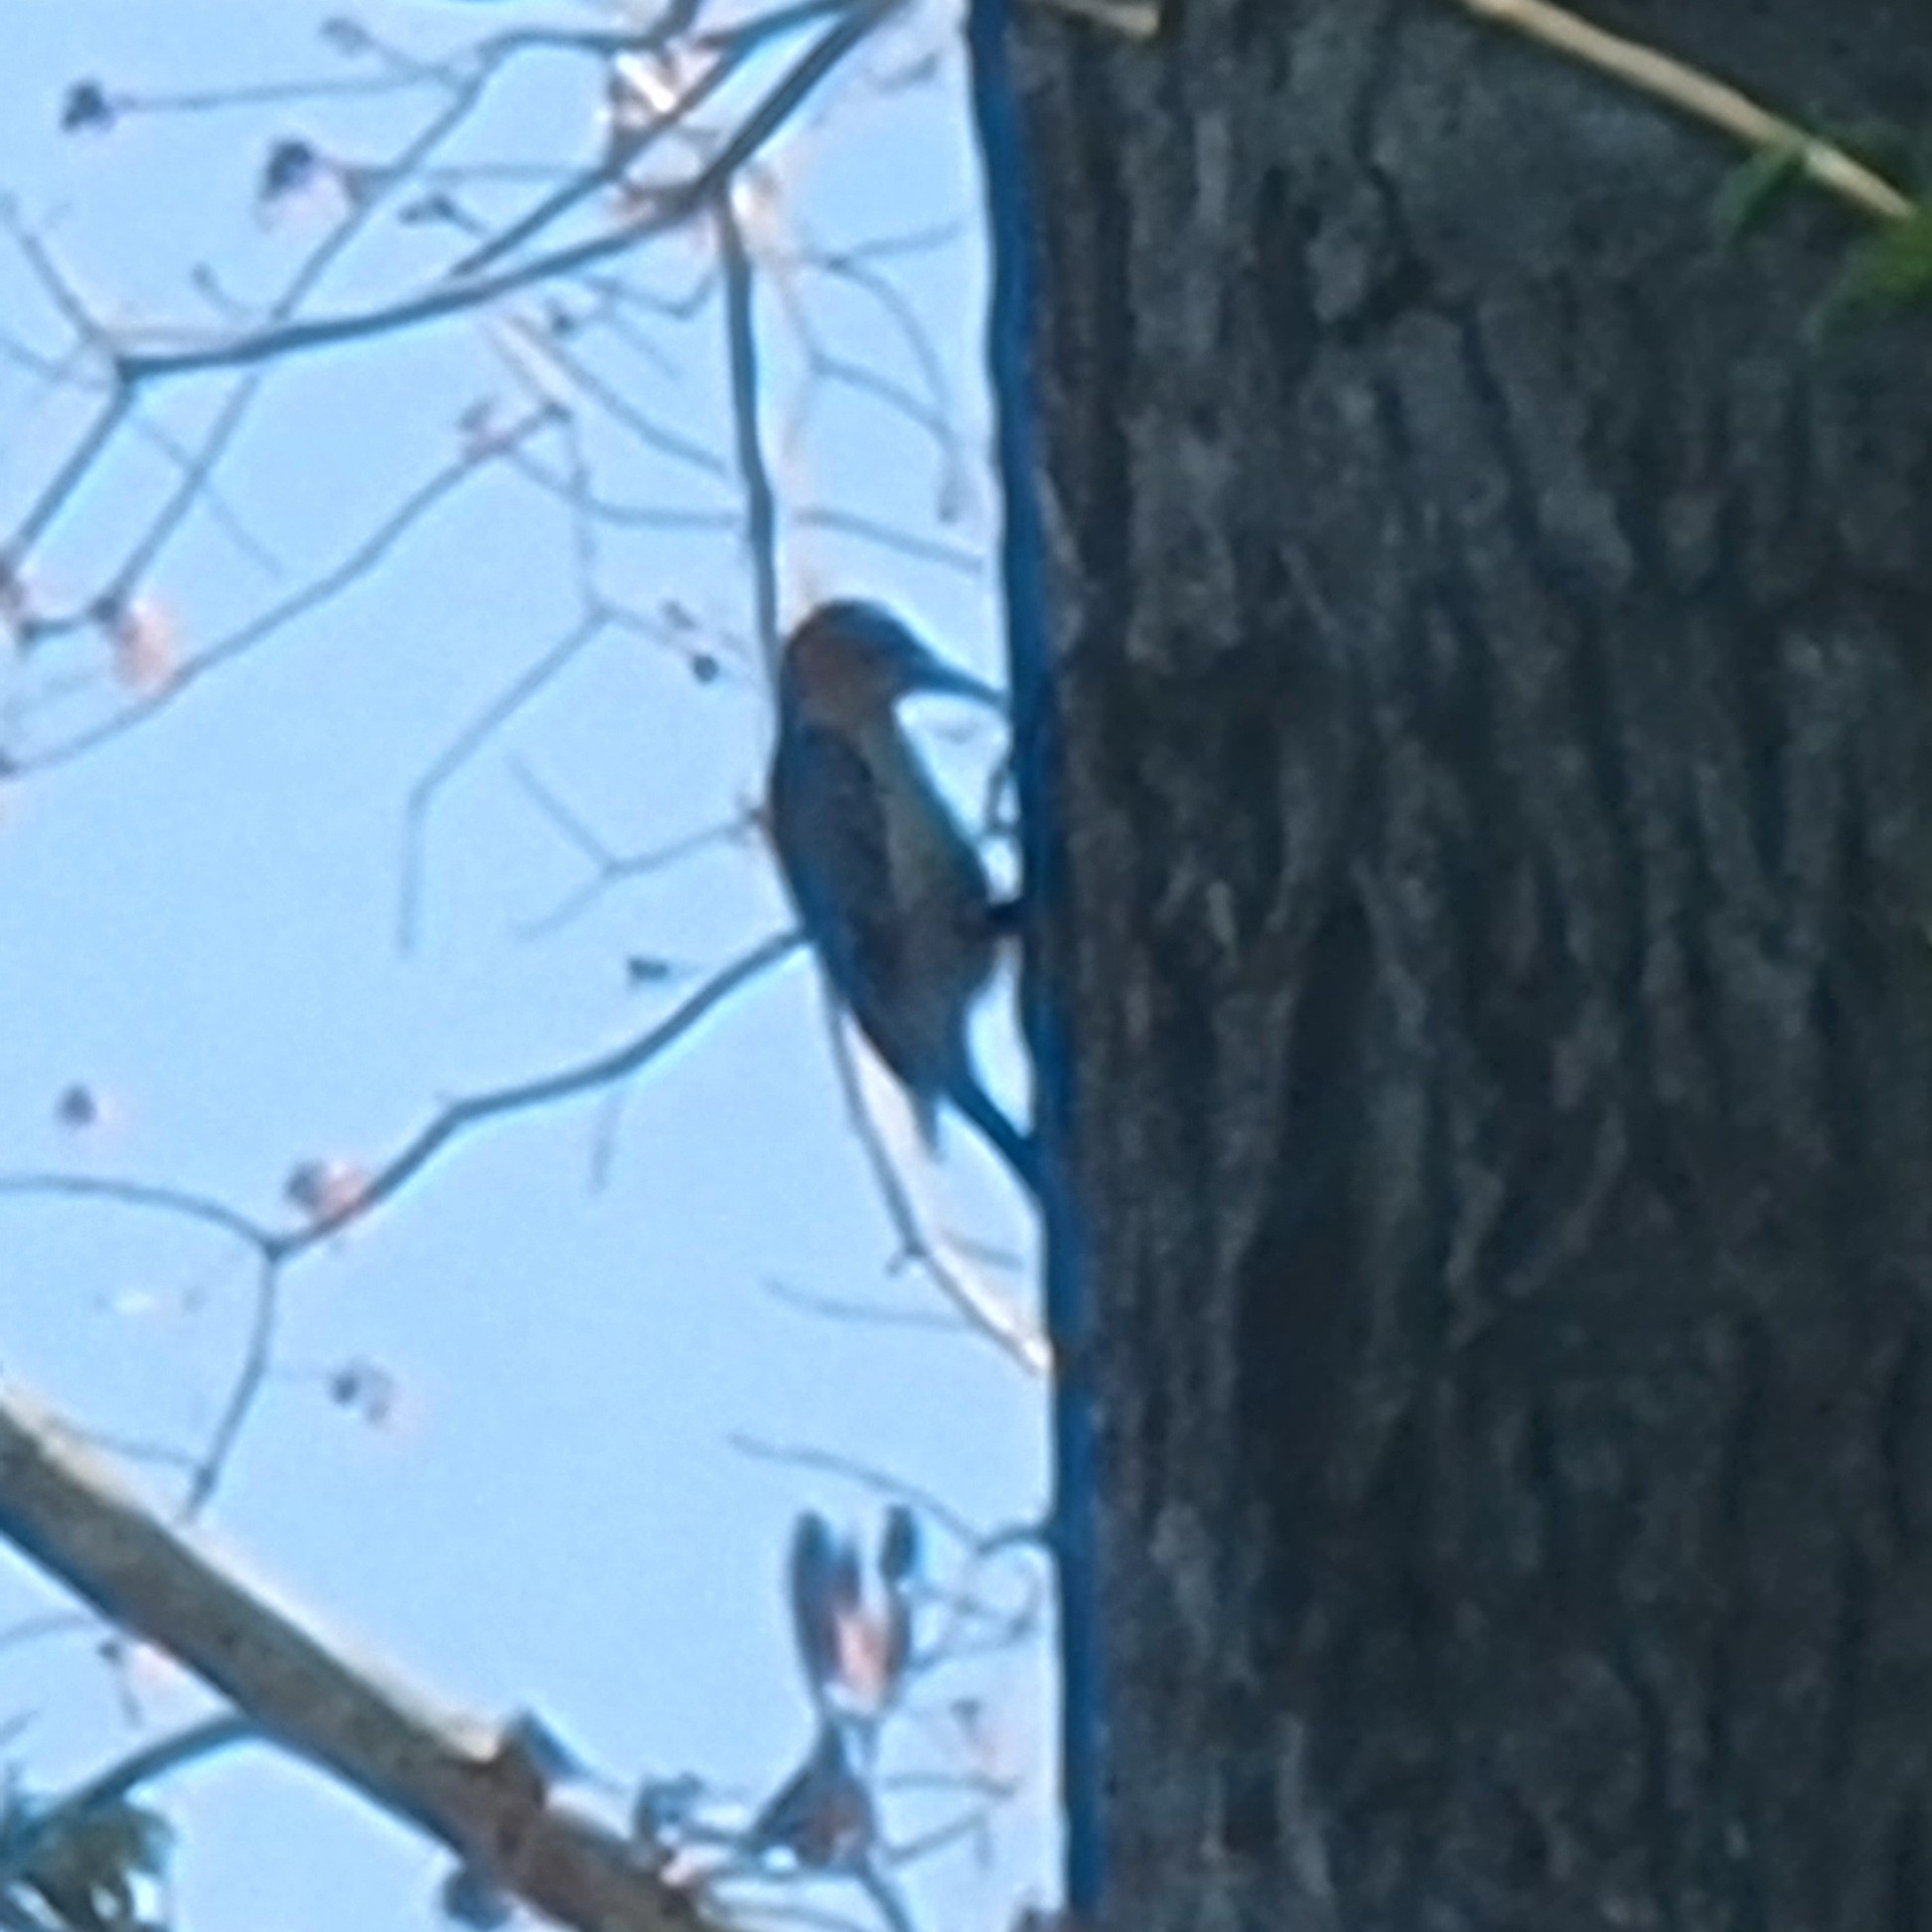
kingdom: Animalia
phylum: Chordata
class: Aves
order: Piciformes
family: Picidae
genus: Melanerpes
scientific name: Melanerpes carolinus
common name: Red-bellied woodpecker
